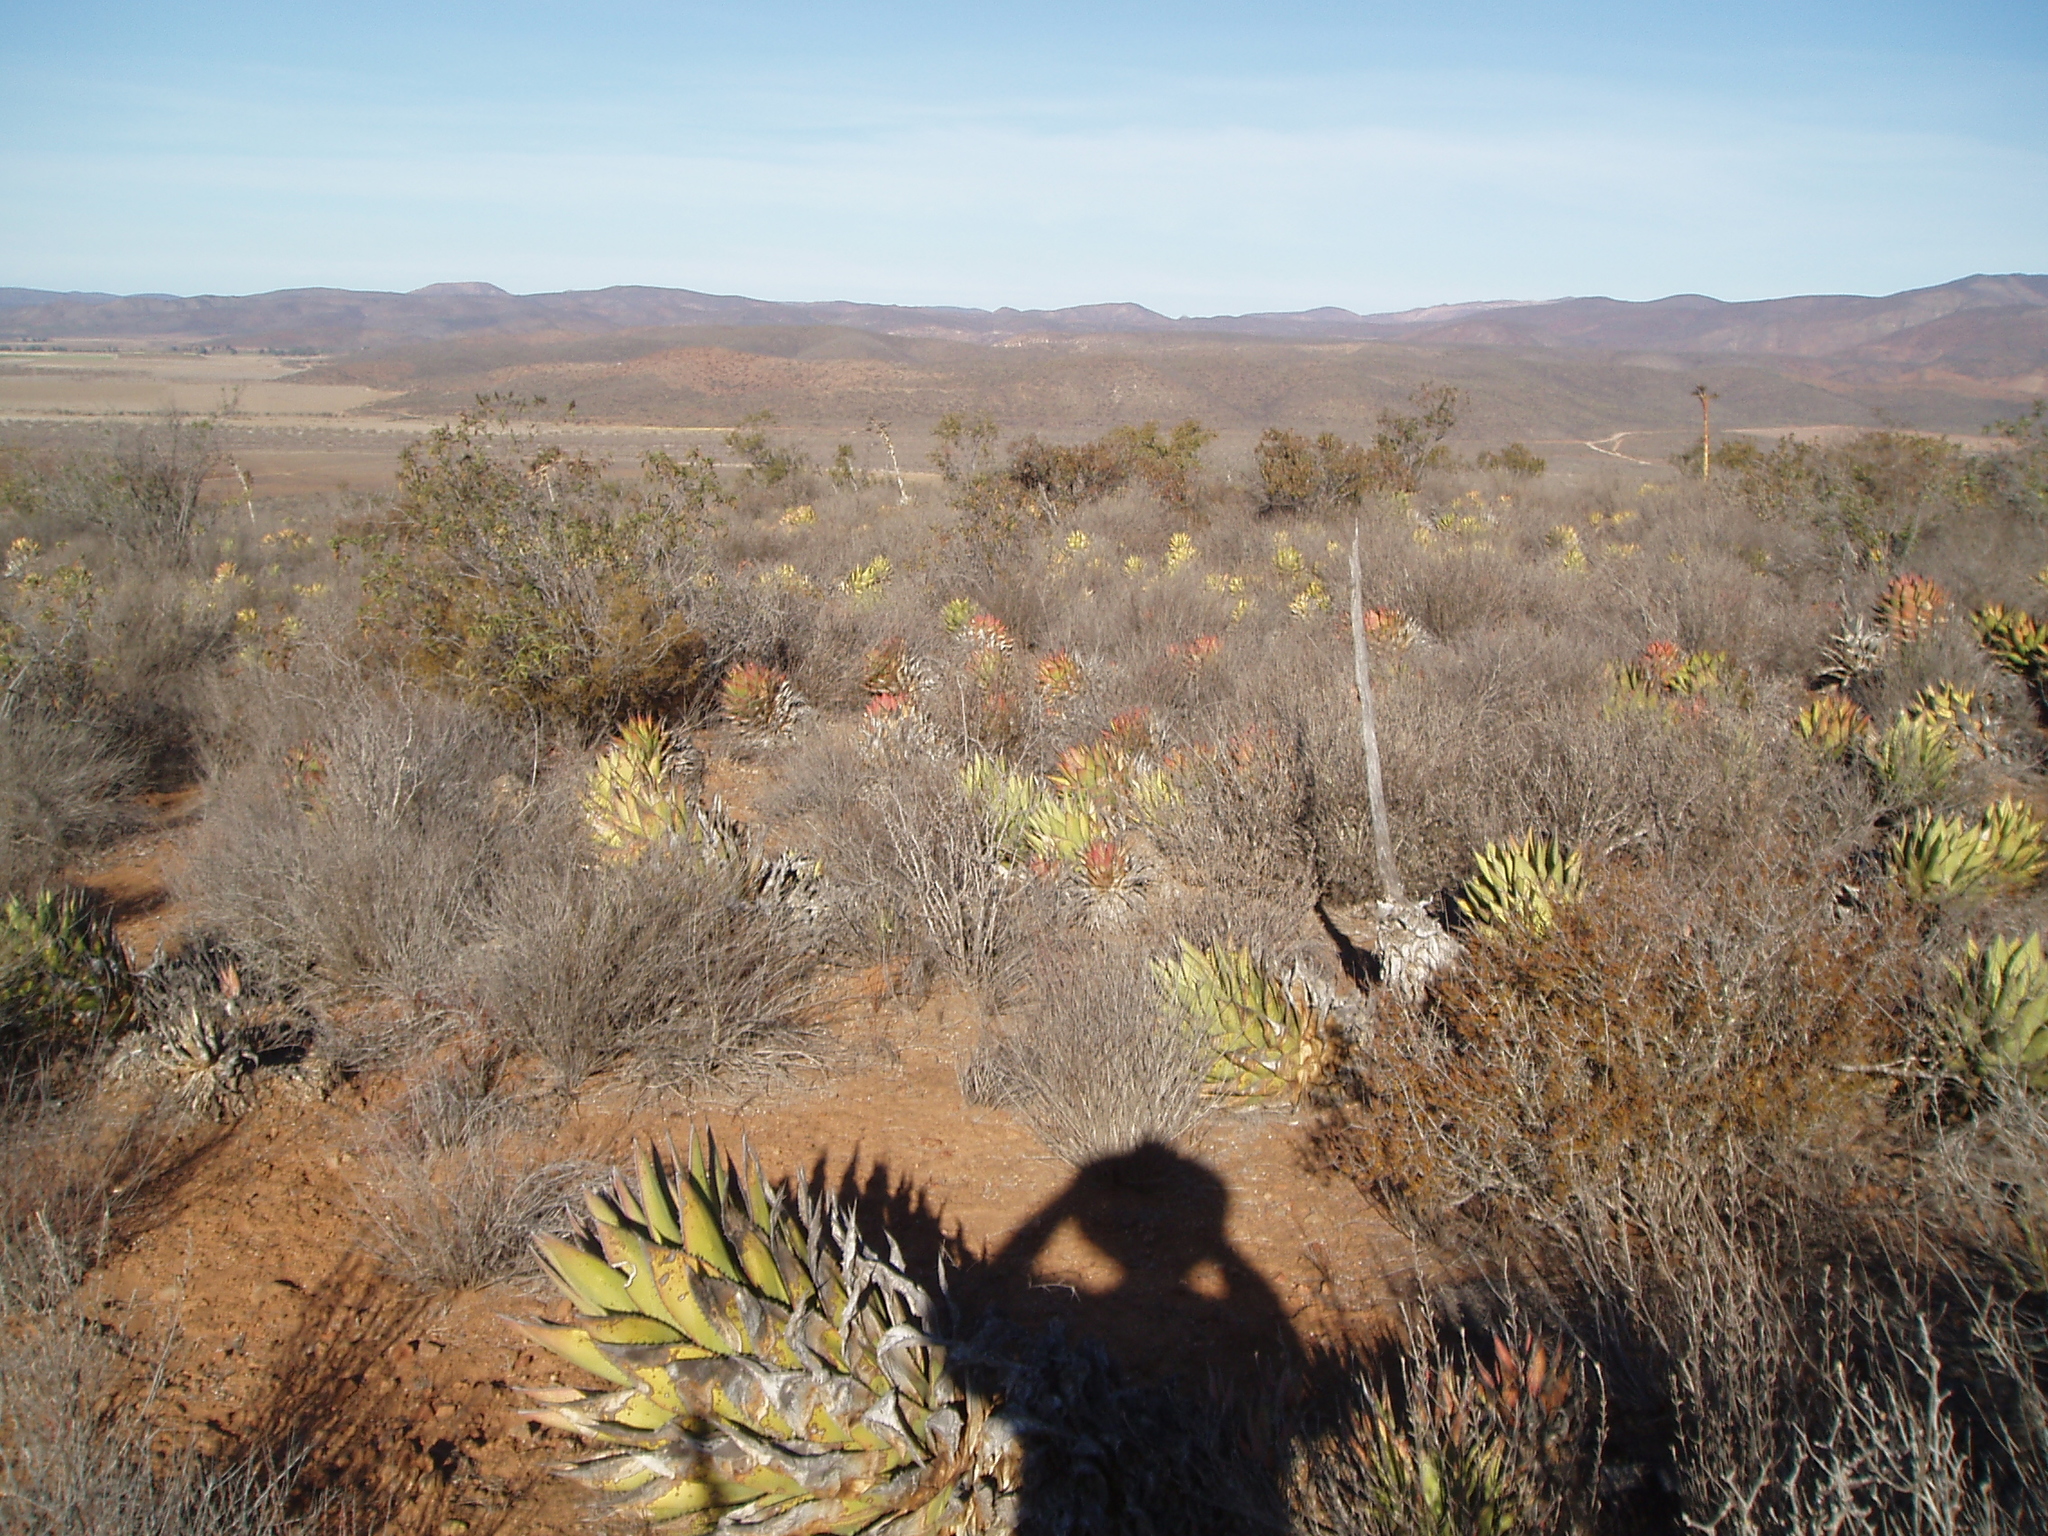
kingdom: Plantae
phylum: Tracheophyta
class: Liliopsida
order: Asparagales
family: Asparagaceae
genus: Agave
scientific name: Agave shawii
